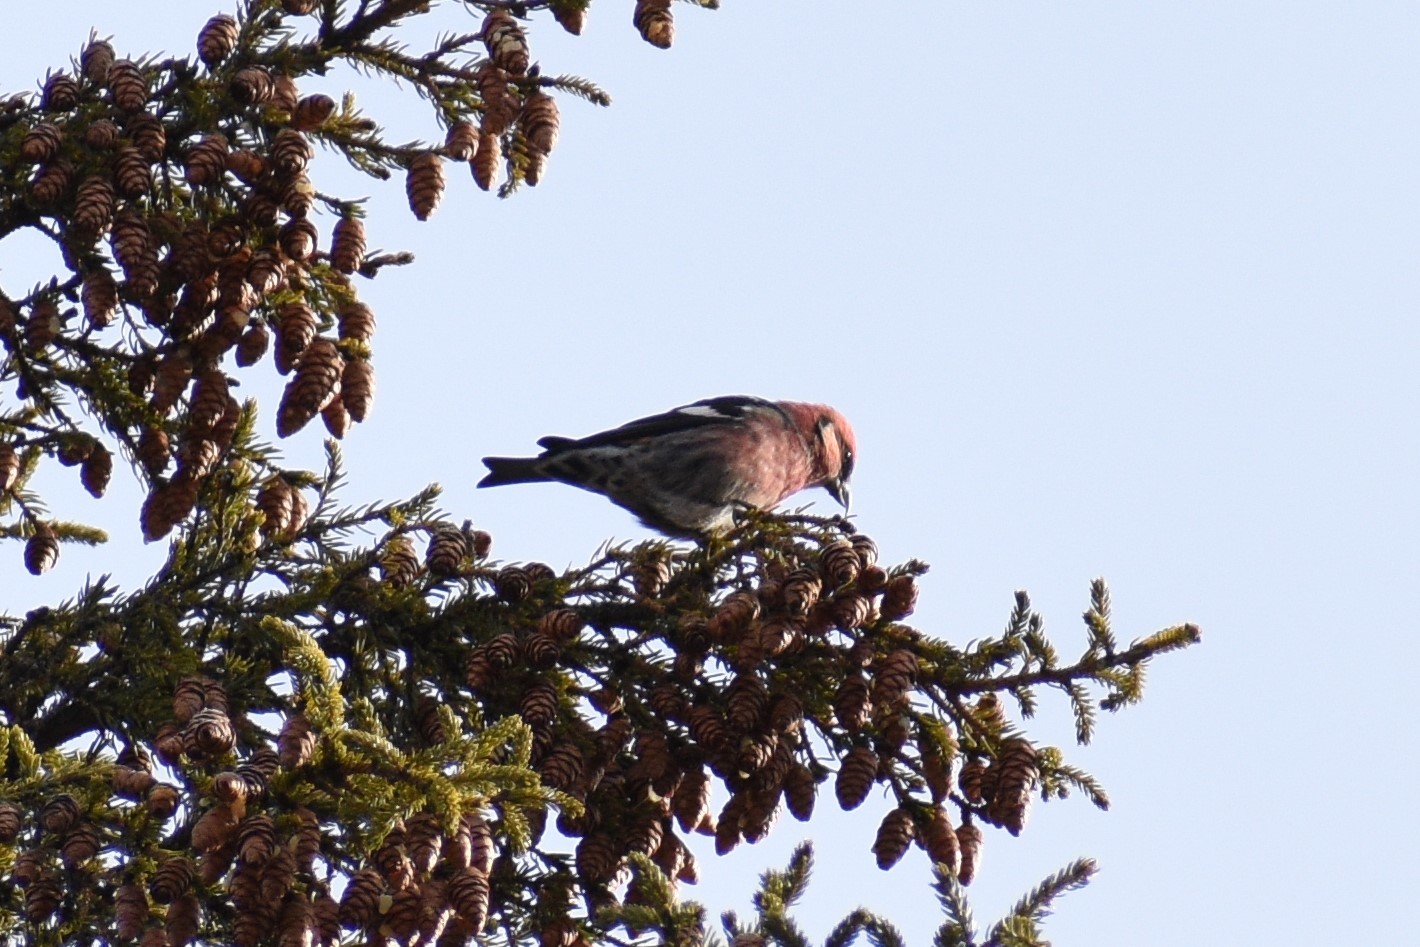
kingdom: Animalia
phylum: Chordata
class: Aves
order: Passeriformes
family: Fringillidae
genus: Loxia
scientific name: Loxia leucoptera
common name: Two-barred crossbill
